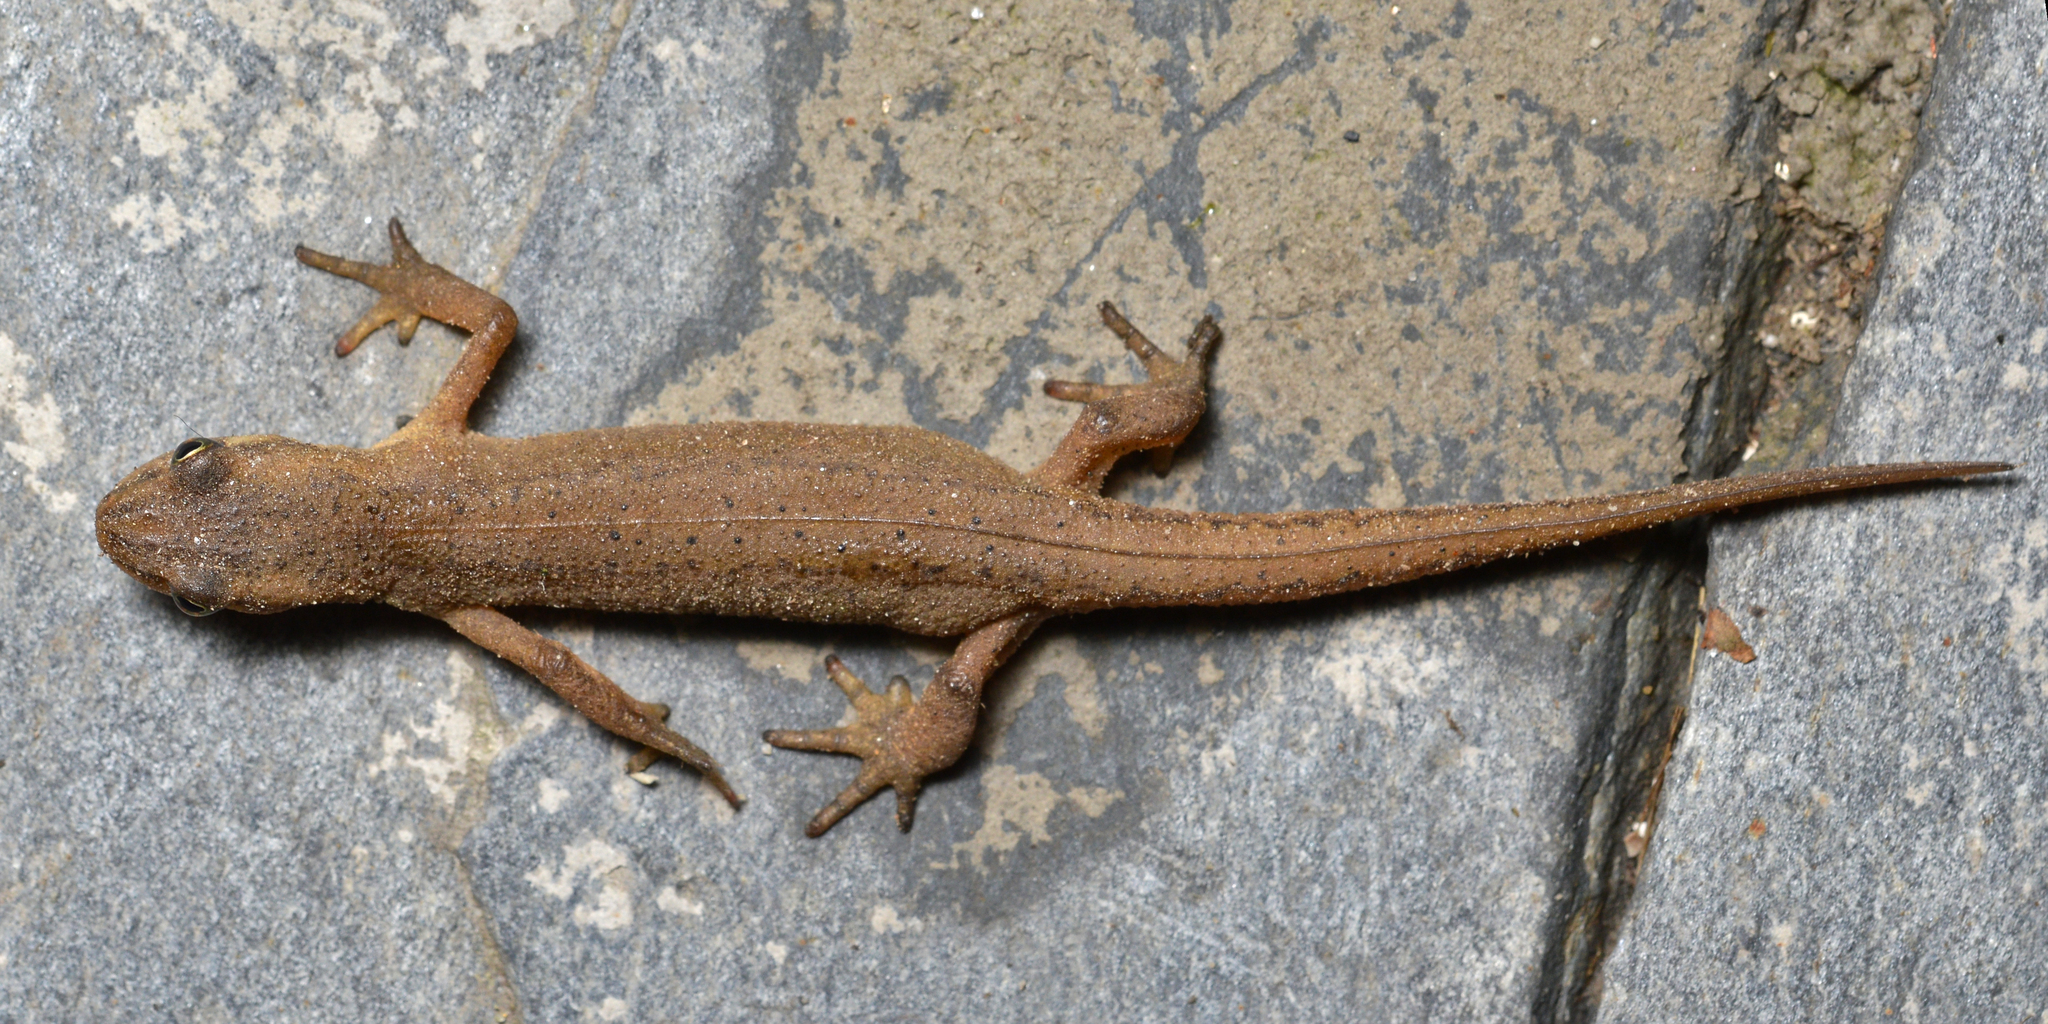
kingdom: Animalia
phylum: Chordata
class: Amphibia
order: Caudata
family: Salamandridae
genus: Lissotriton
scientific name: Lissotriton vulgaris
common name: Smooth newt
